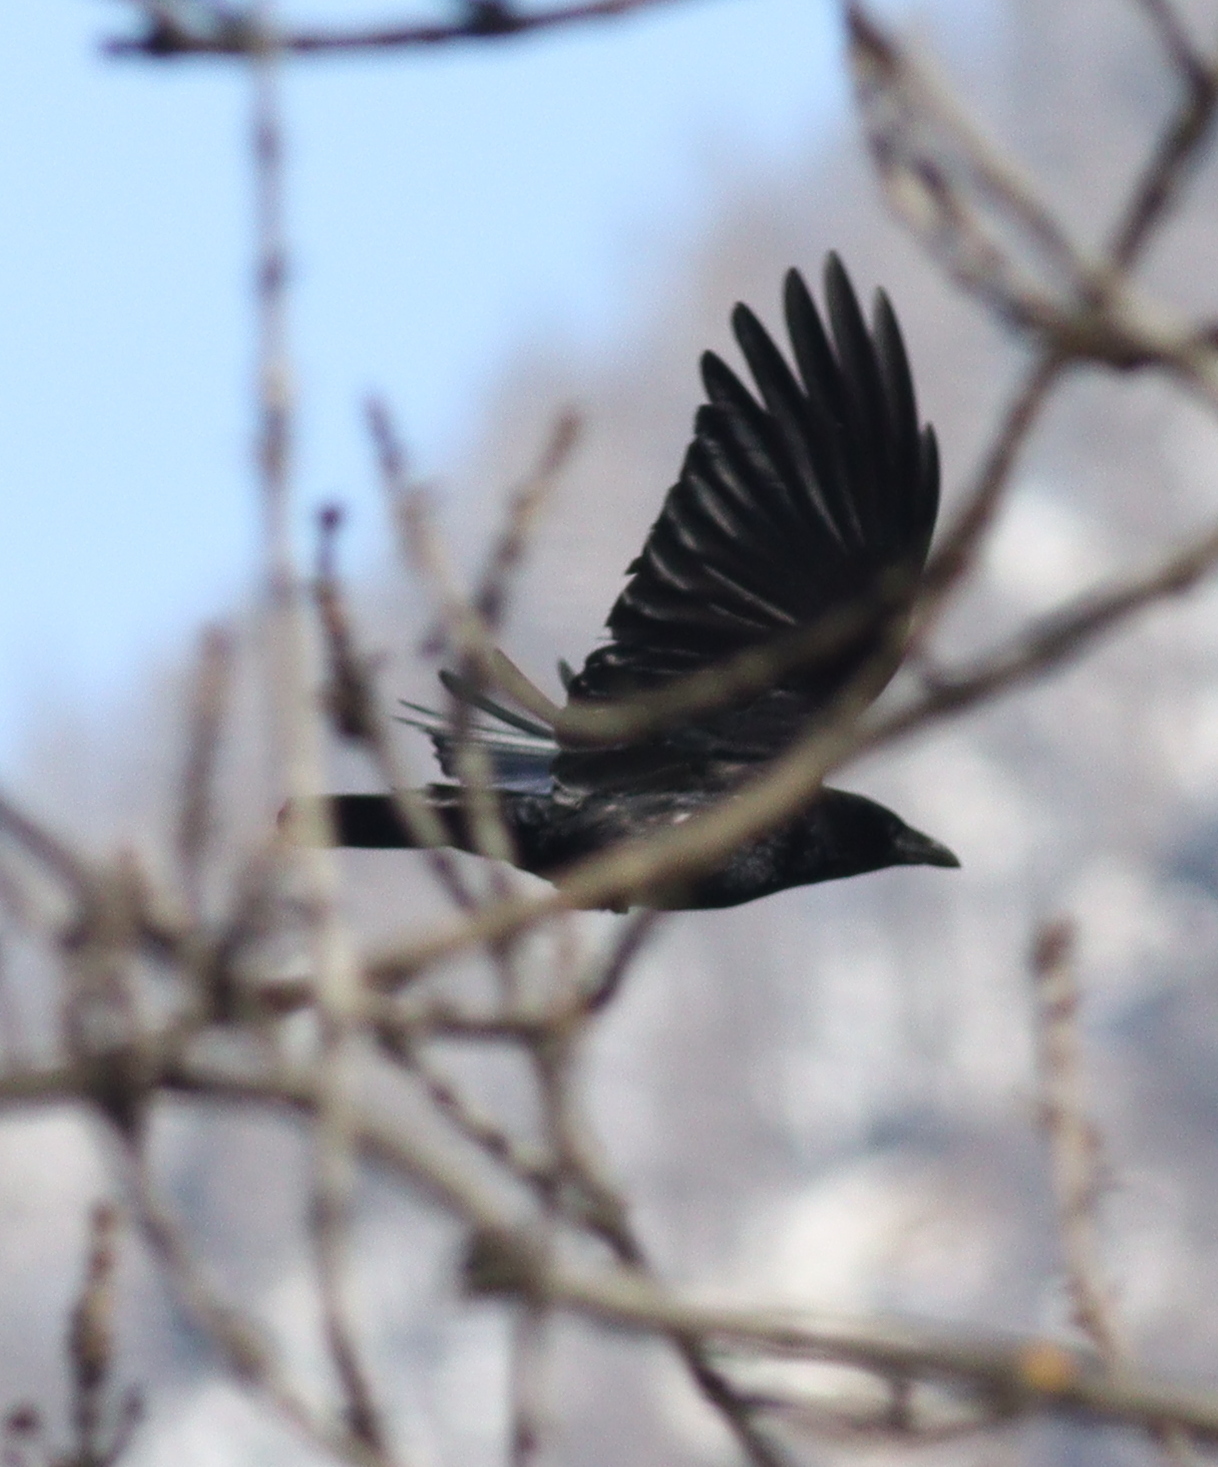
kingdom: Animalia
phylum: Chordata
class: Aves
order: Passeriformes
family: Corvidae
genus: Corvus
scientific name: Corvus corone
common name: Carrion crow
